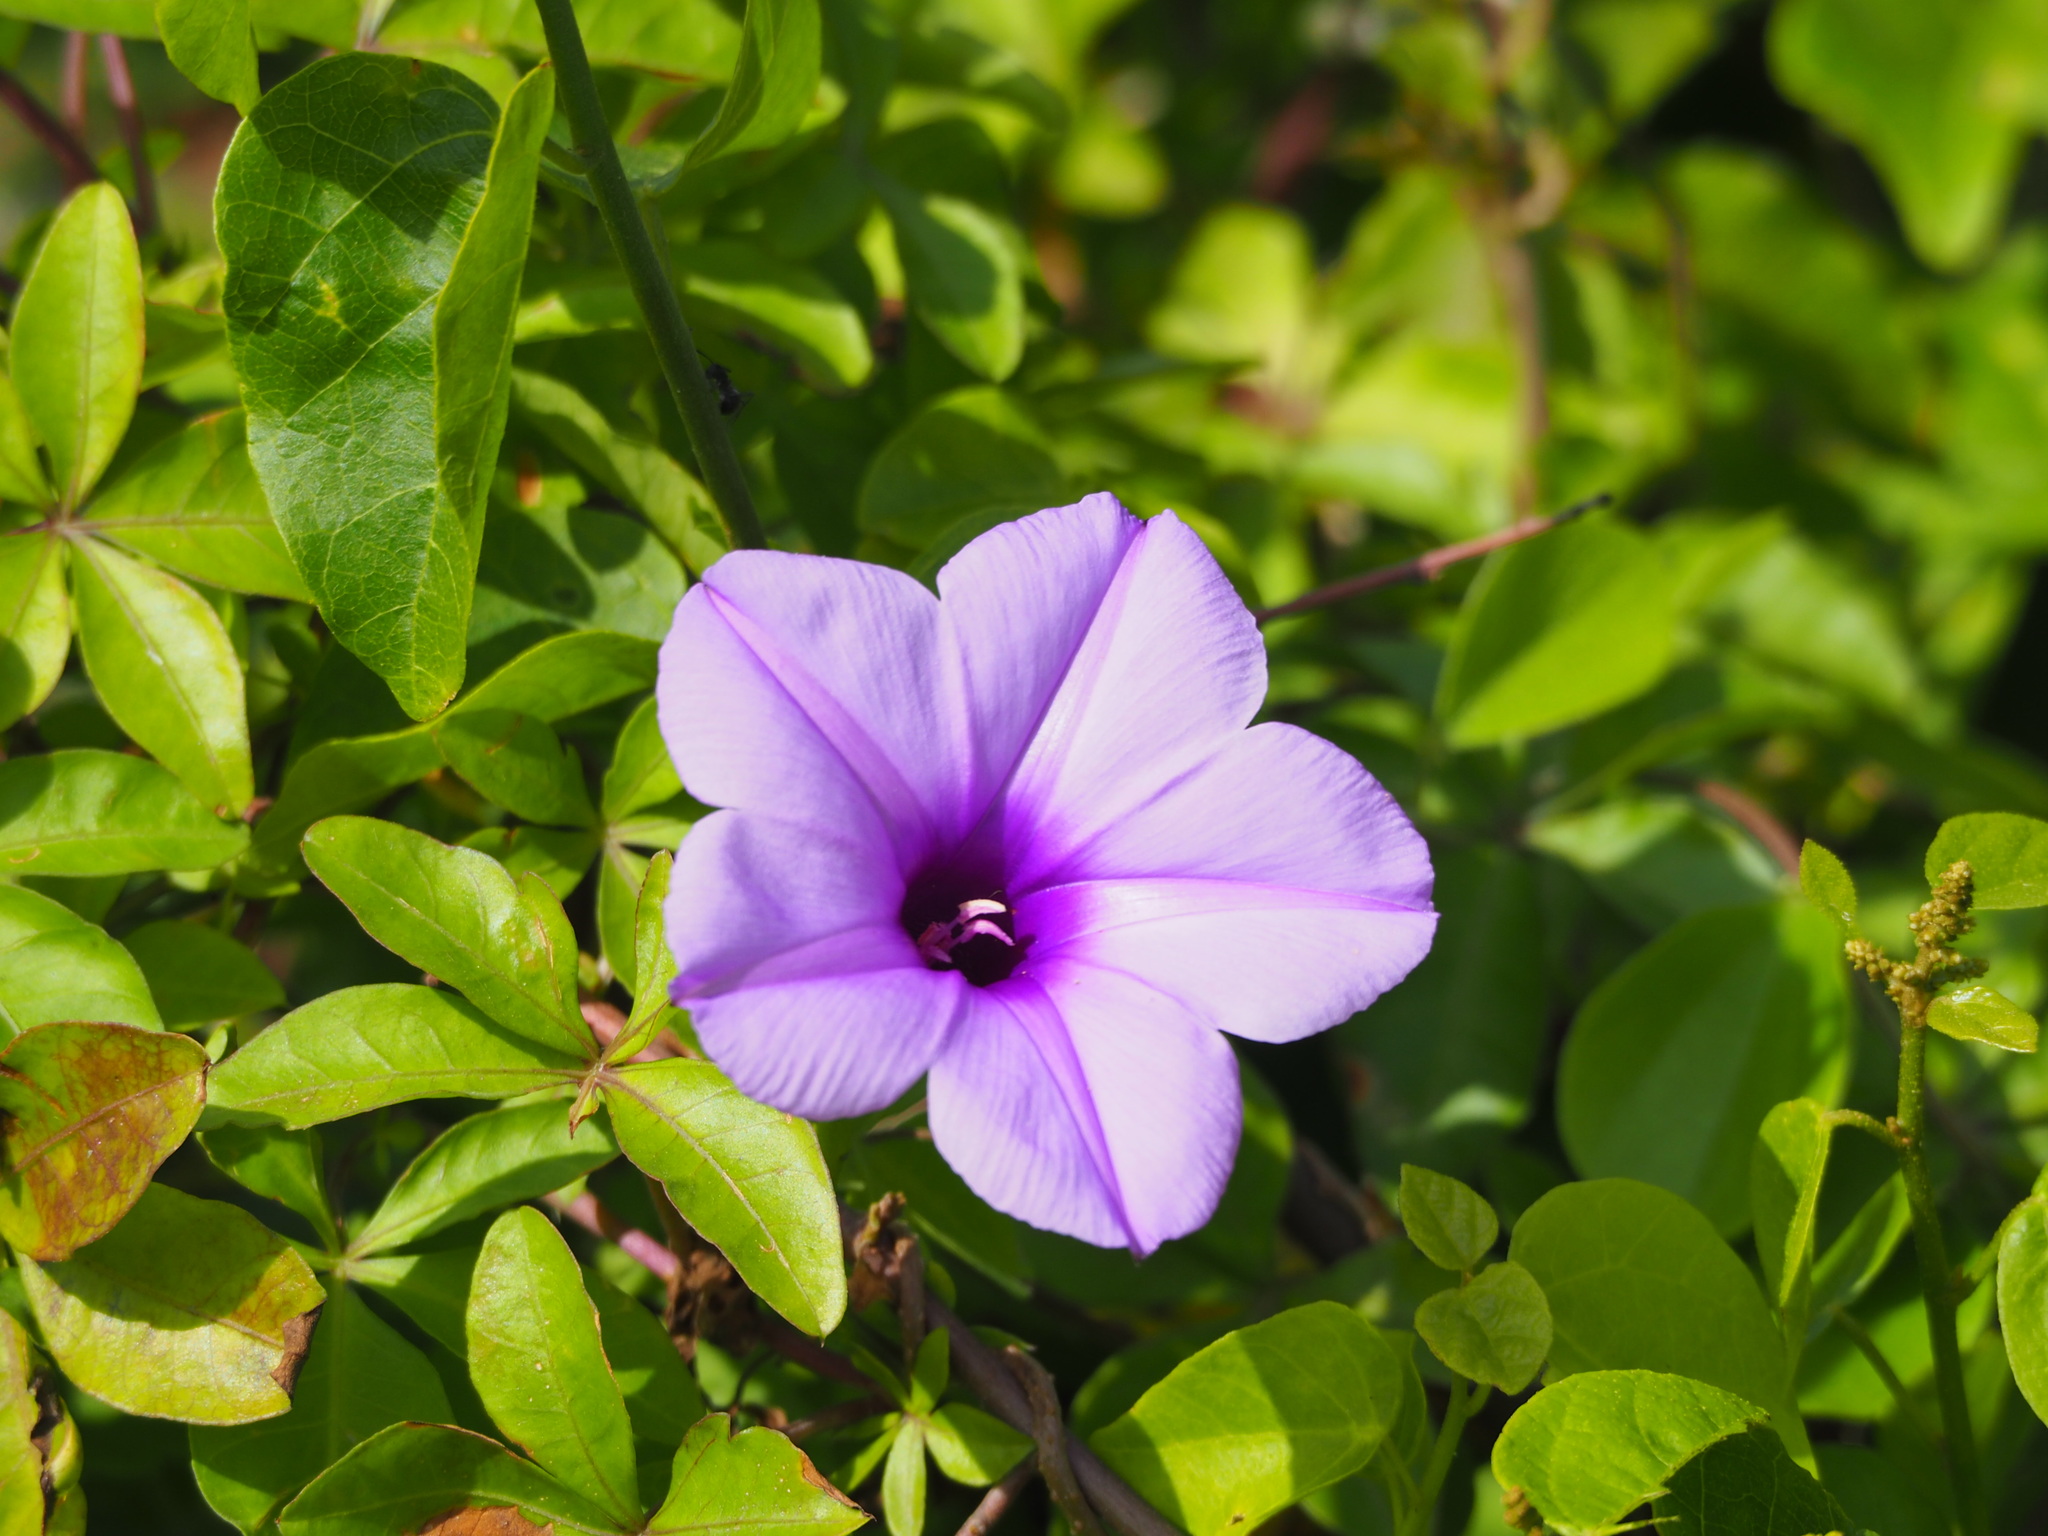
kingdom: Plantae
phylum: Tracheophyta
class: Magnoliopsida
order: Solanales
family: Convolvulaceae
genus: Ipomoea
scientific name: Ipomoea cairica
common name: Mile a minute vine
